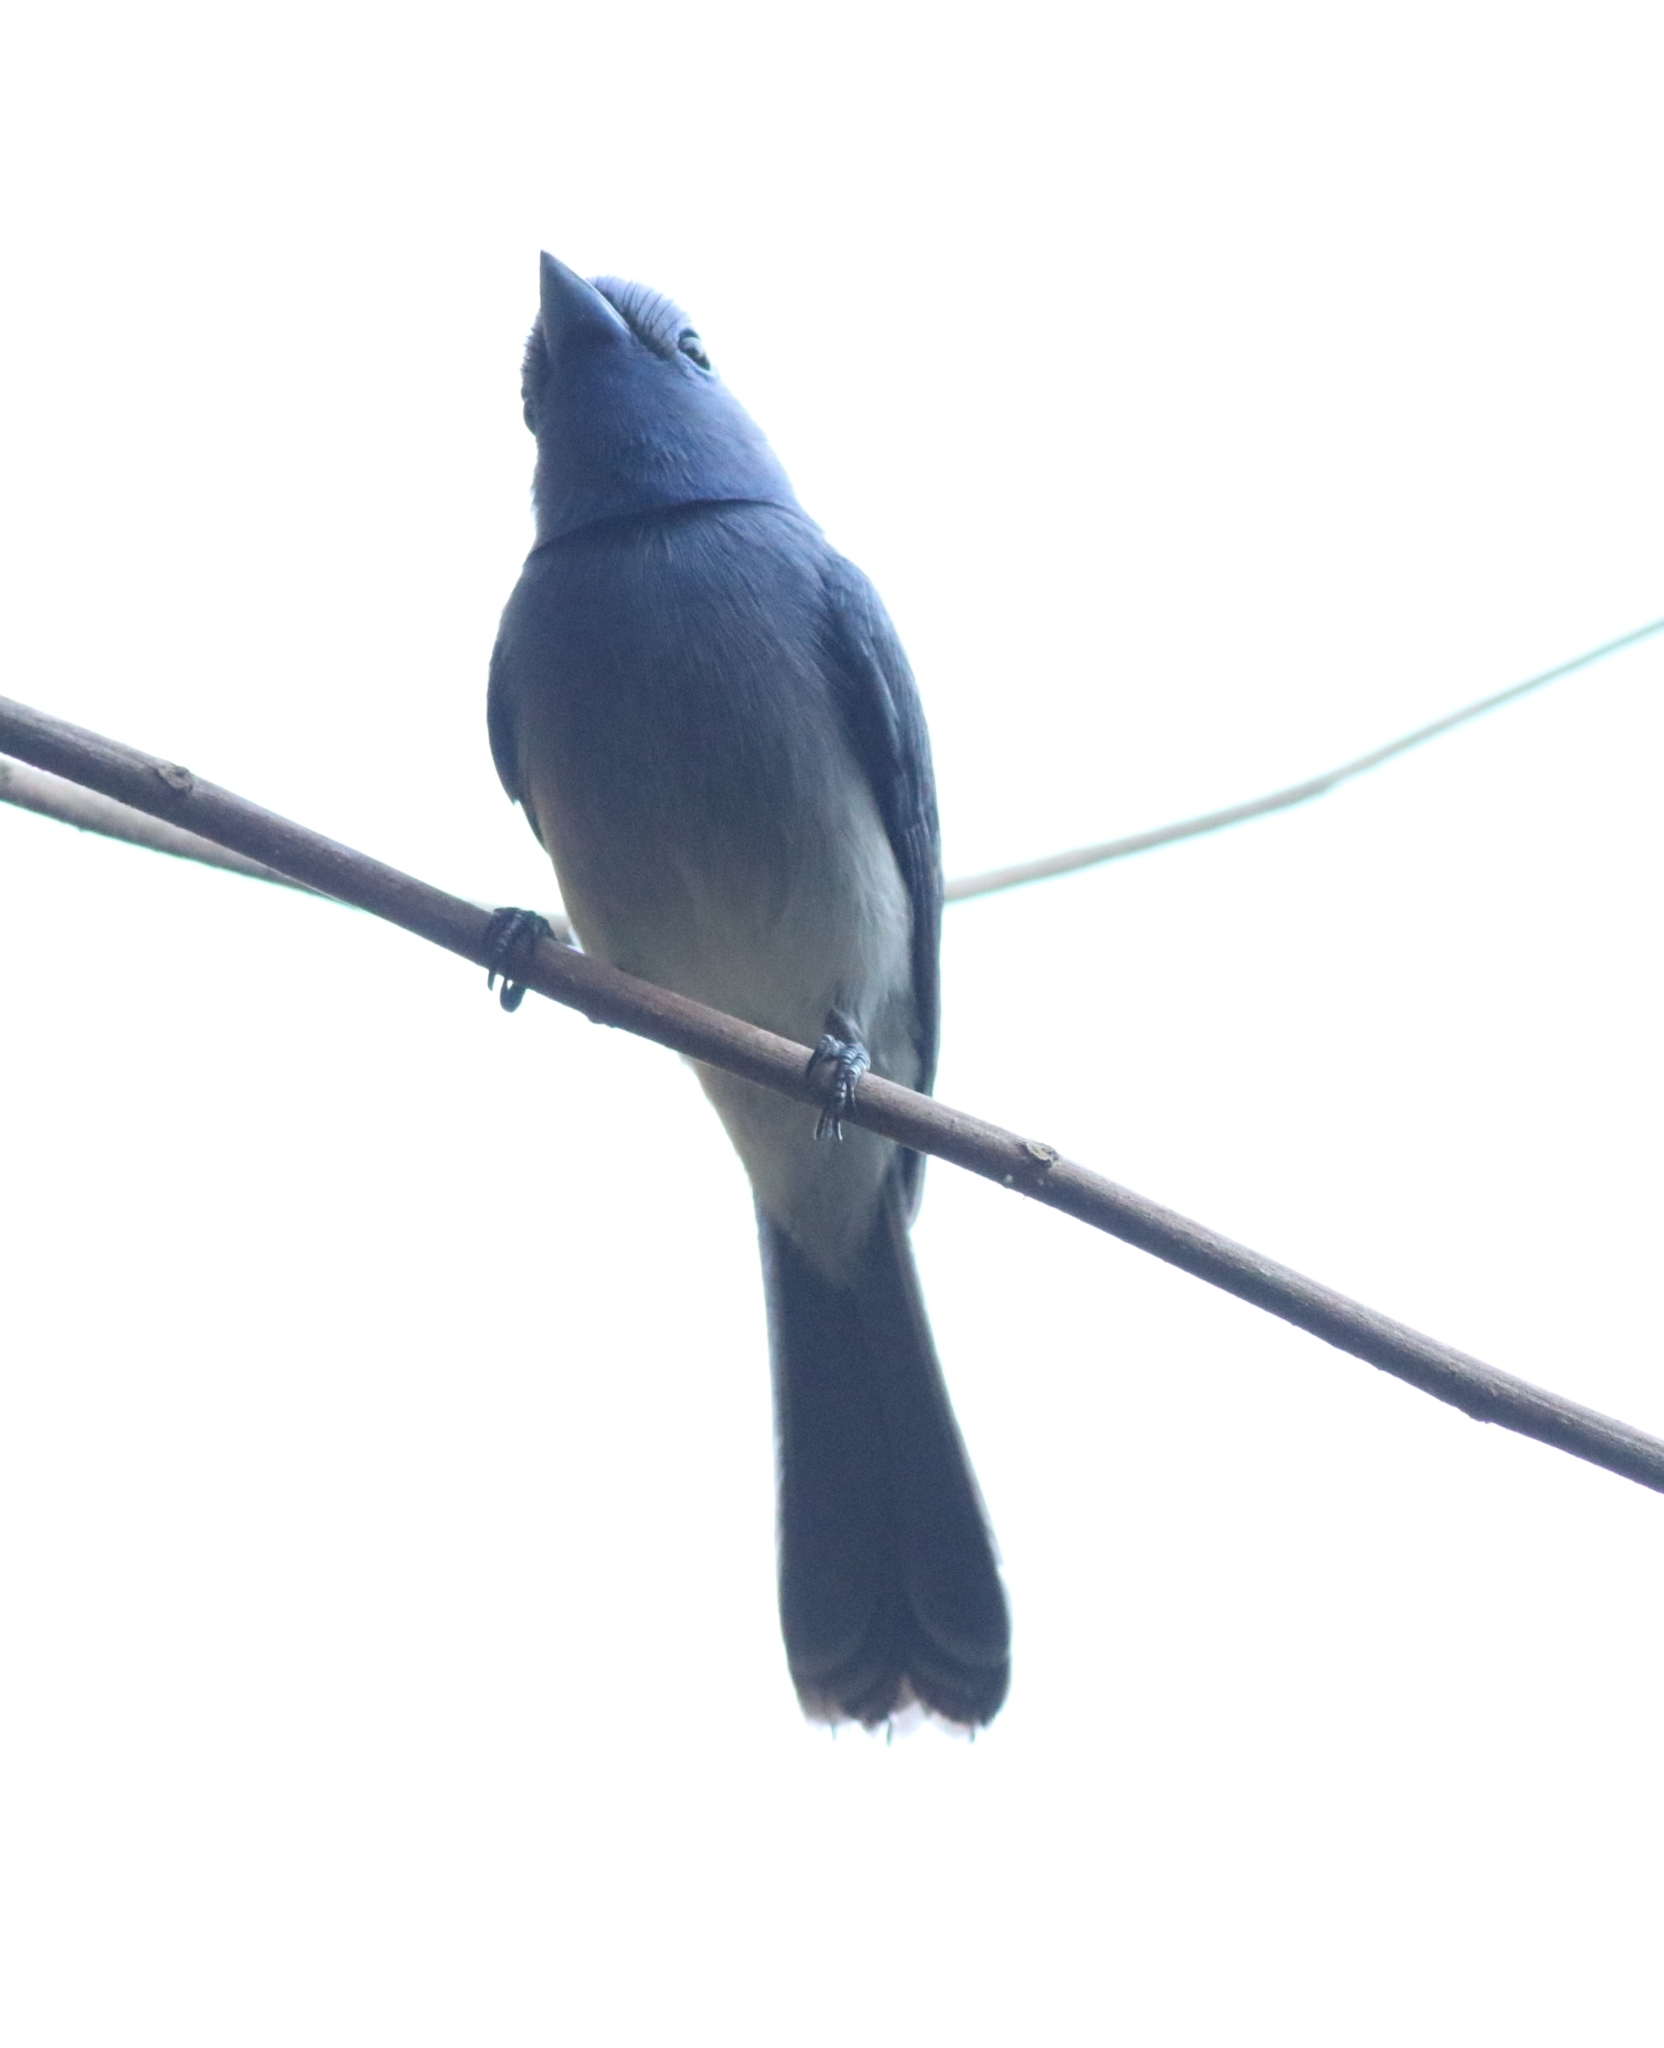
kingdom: Animalia
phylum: Chordata
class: Aves
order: Passeriformes
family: Monarchidae
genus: Hypothymis
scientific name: Hypothymis azurea
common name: Black-naped monarch
